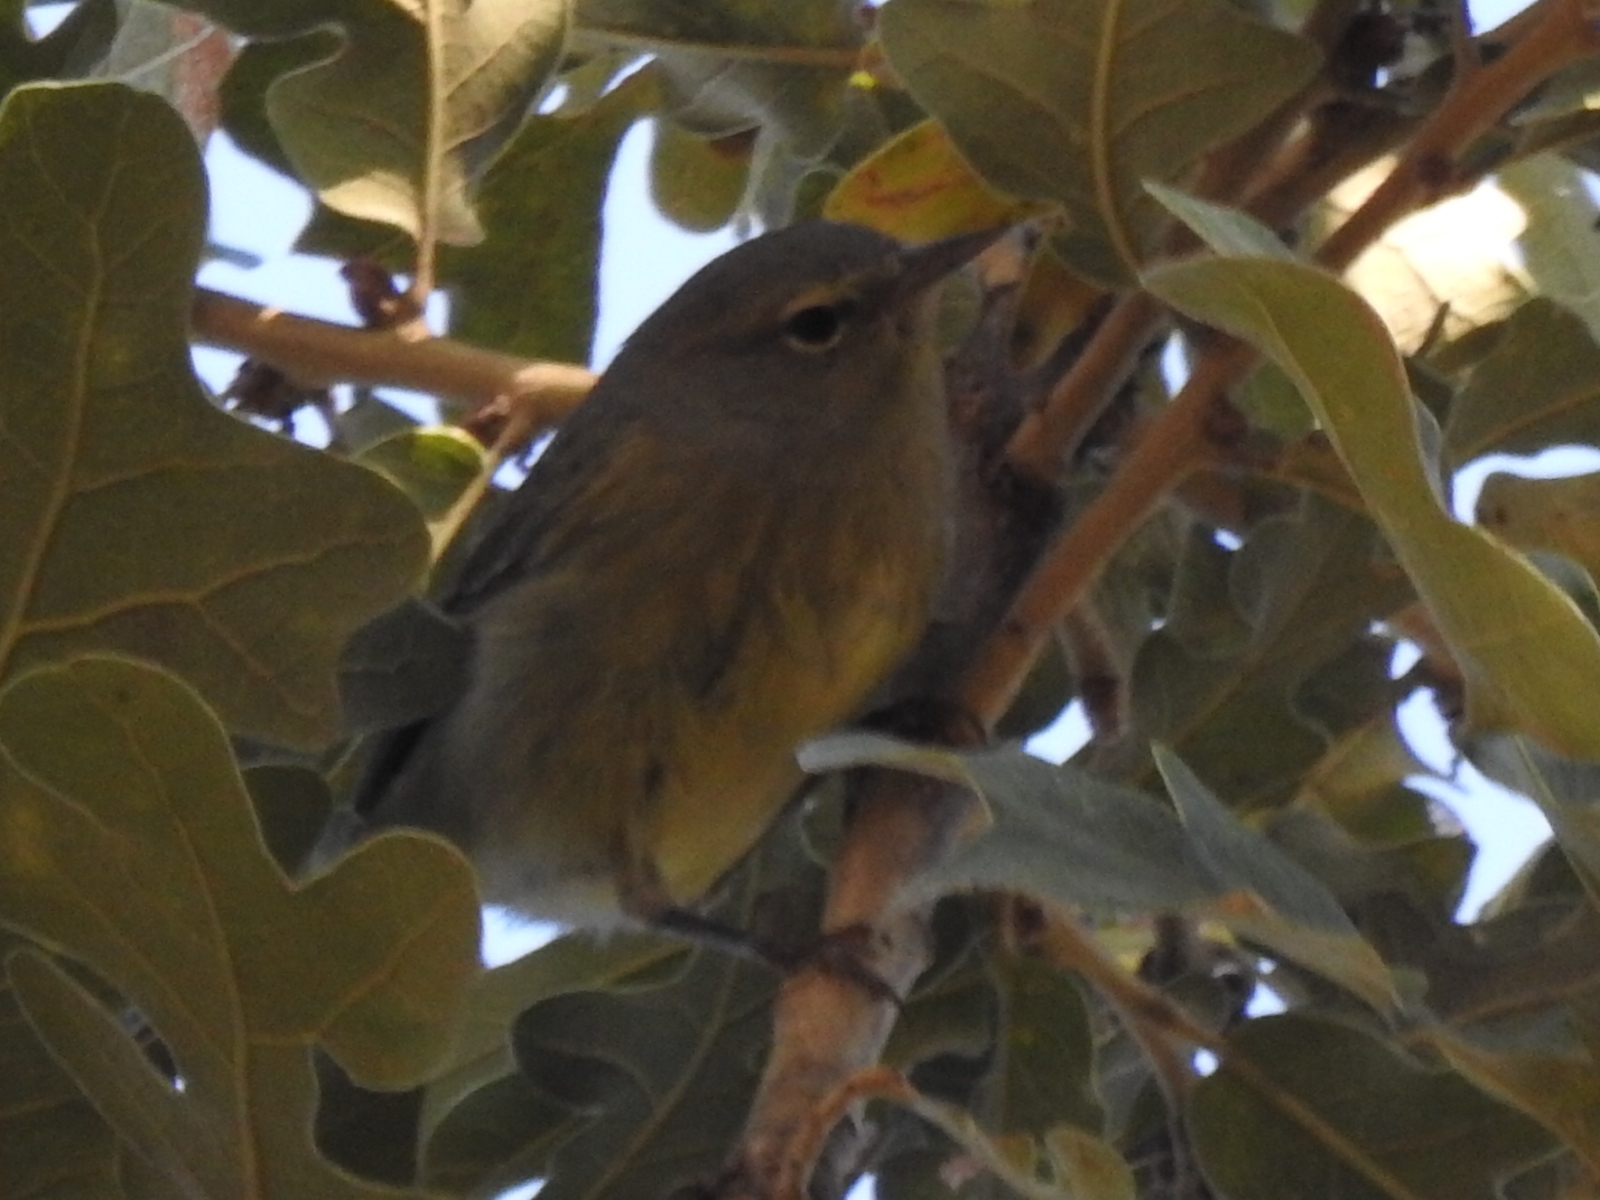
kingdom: Animalia
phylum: Chordata
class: Aves
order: Passeriformes
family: Parulidae
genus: Leiothlypis
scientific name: Leiothlypis celata
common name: Orange-crowned warbler
